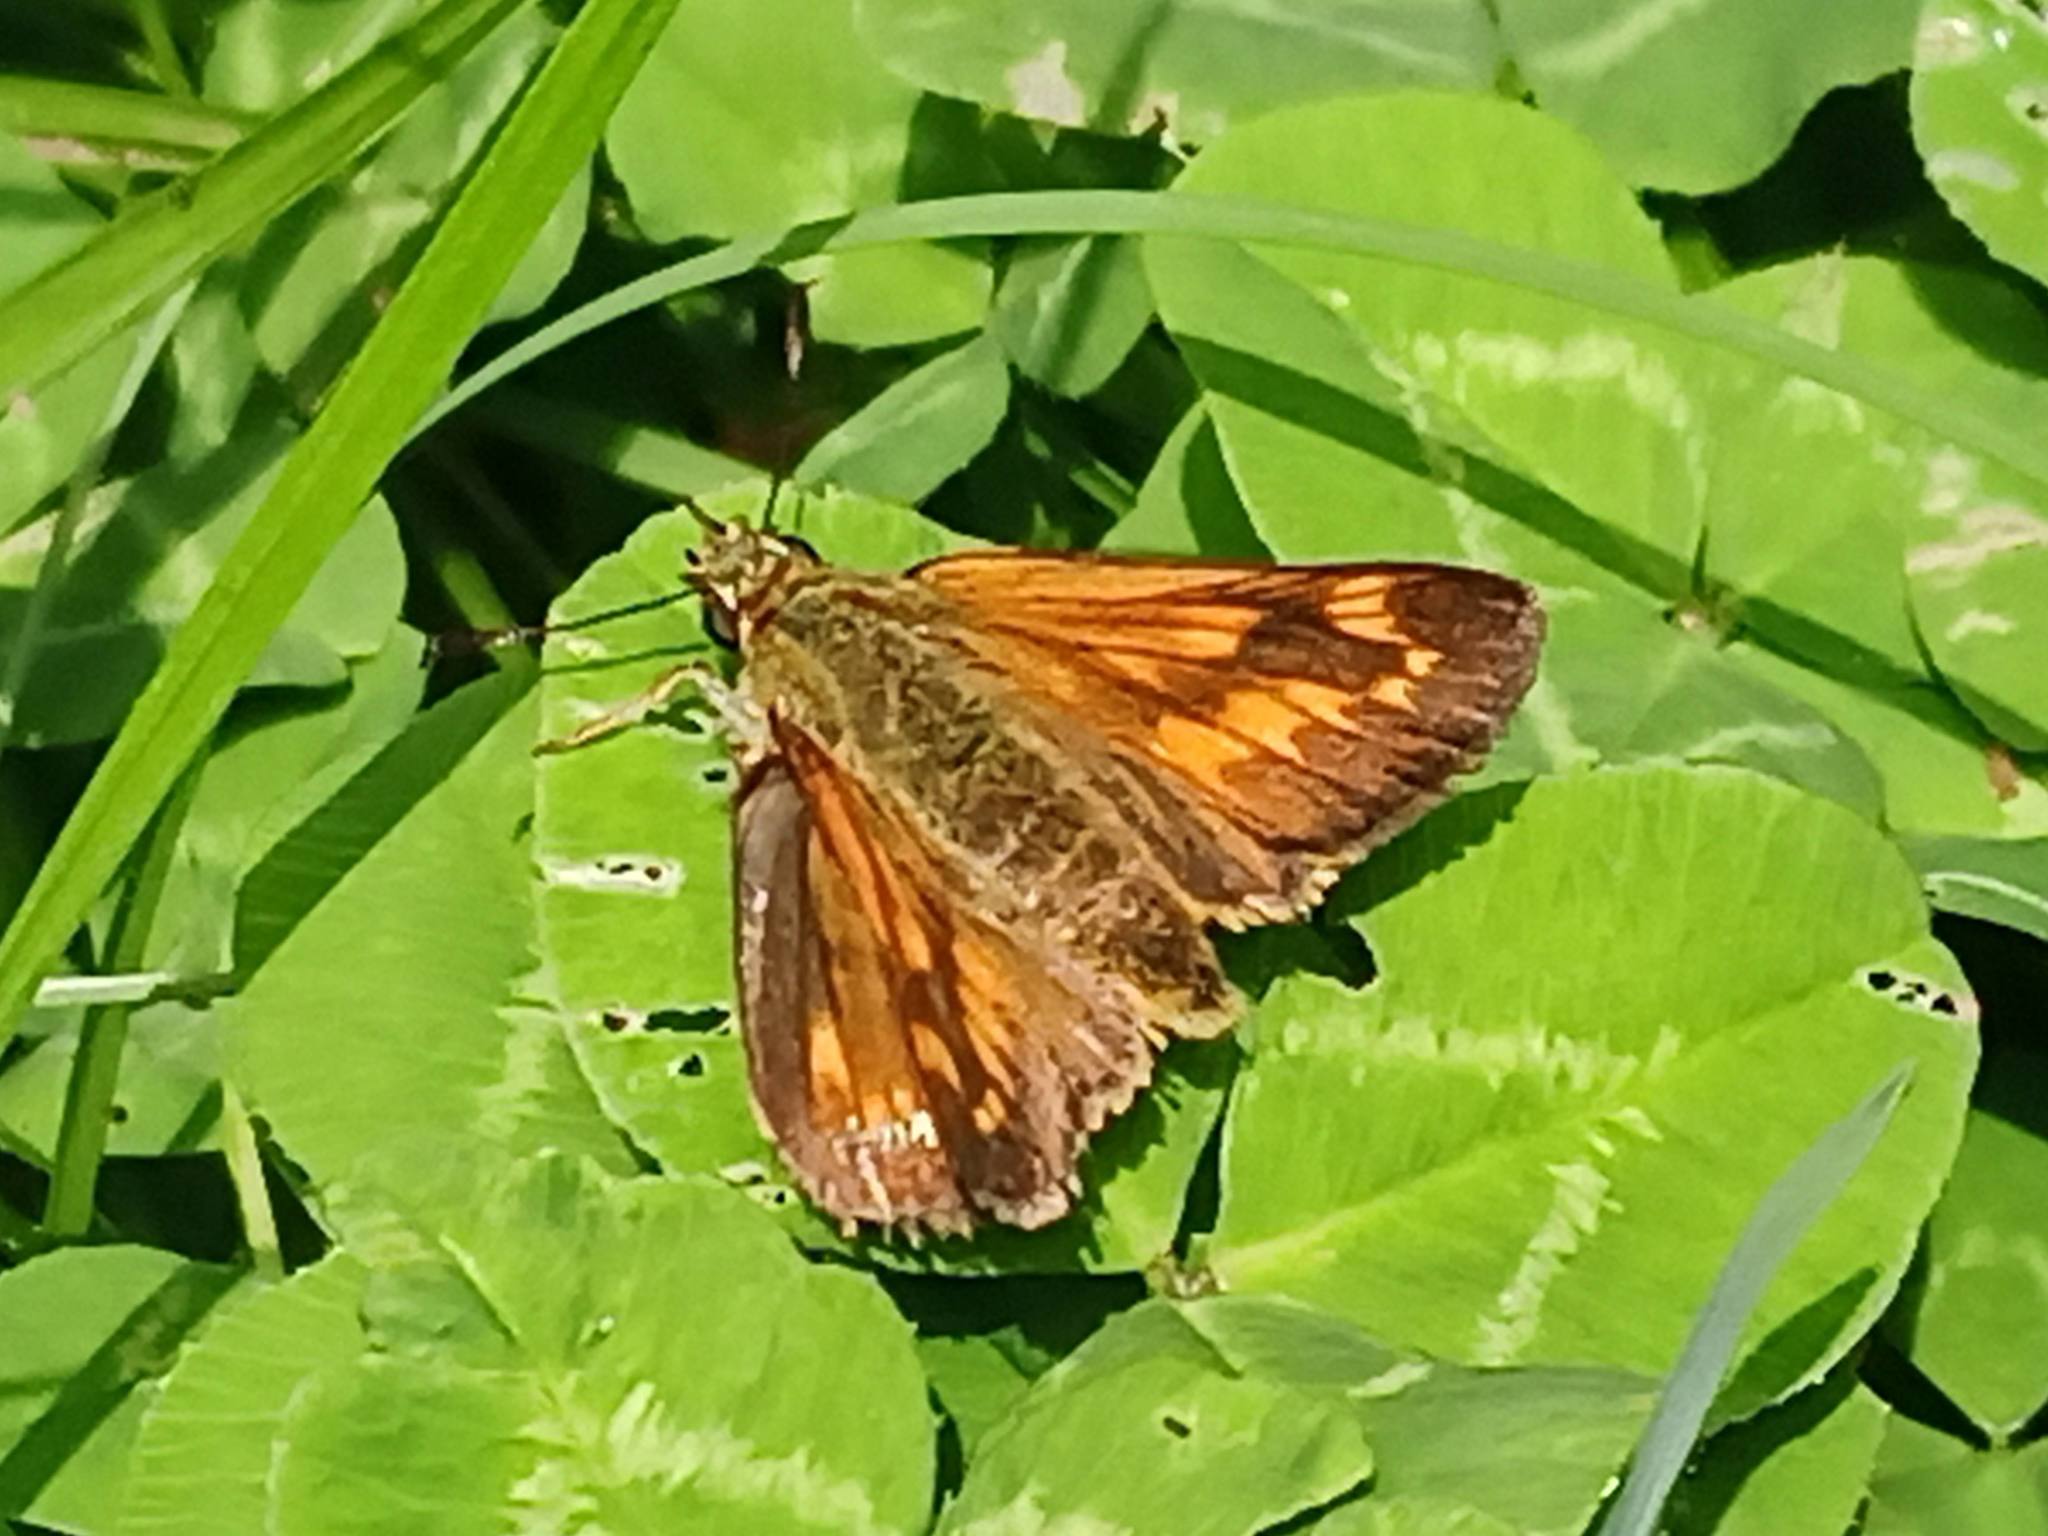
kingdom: Animalia
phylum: Arthropoda
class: Insecta
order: Lepidoptera
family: Hesperiidae
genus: Ochlodes
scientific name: Ochlodes venata
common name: Large skipper
